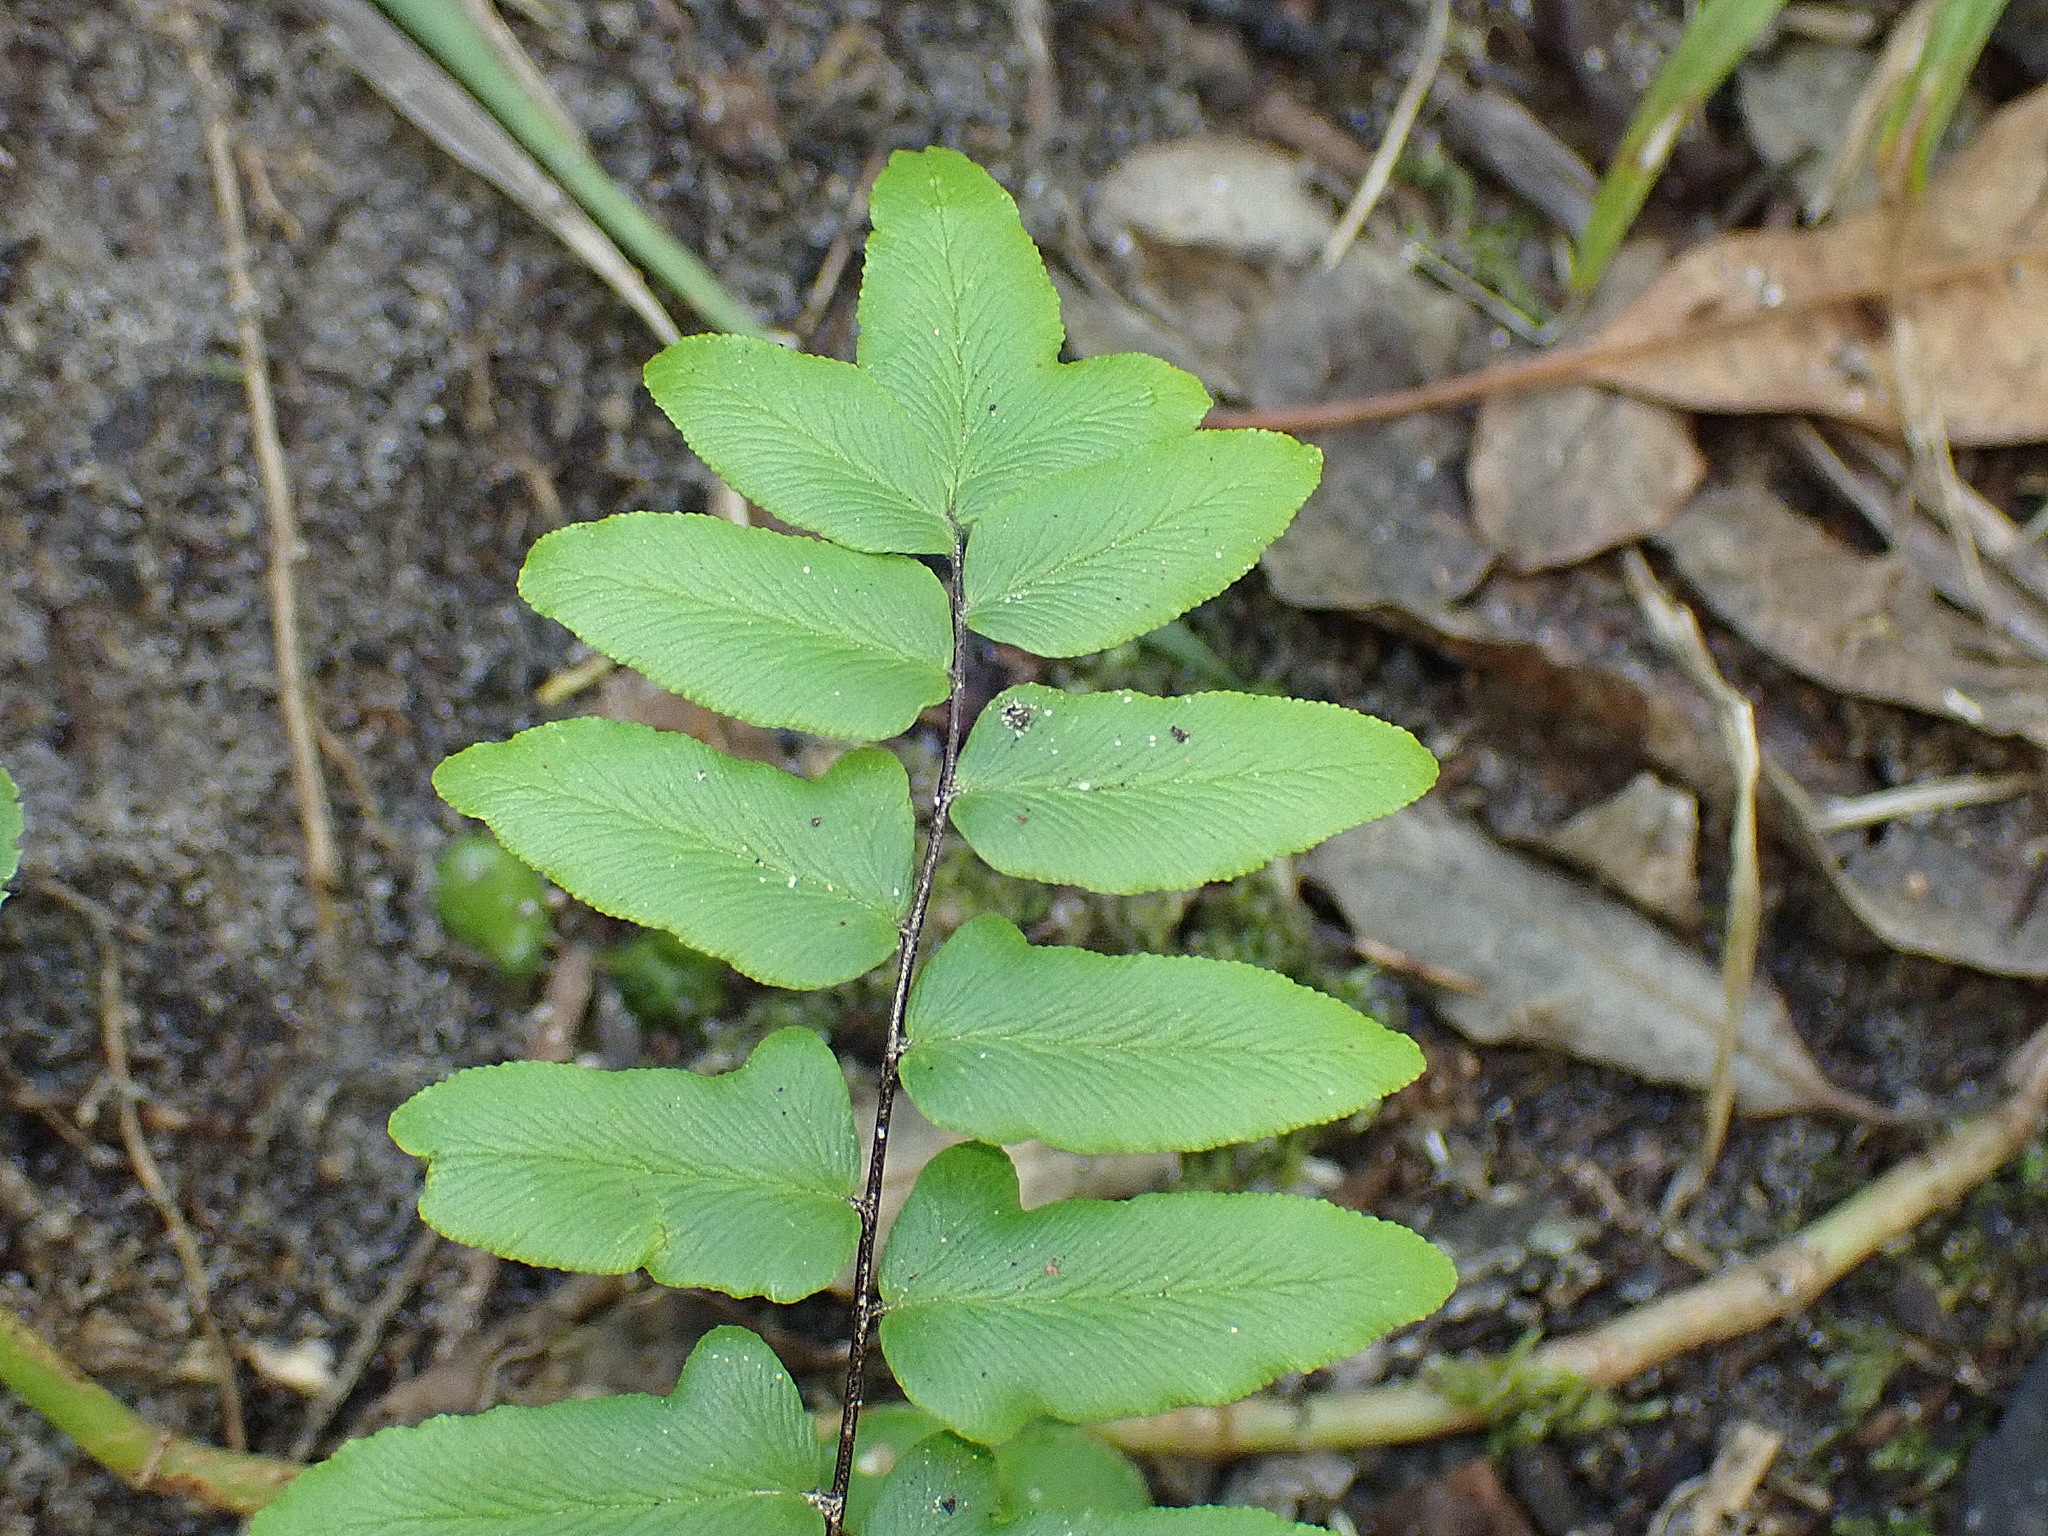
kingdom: Plantae
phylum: Tracheophyta
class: Polypodiopsida
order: Polypodiales
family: Pteridaceae
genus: Cheilanthes
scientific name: Cheilanthes viridis
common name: Green cliffbrake
